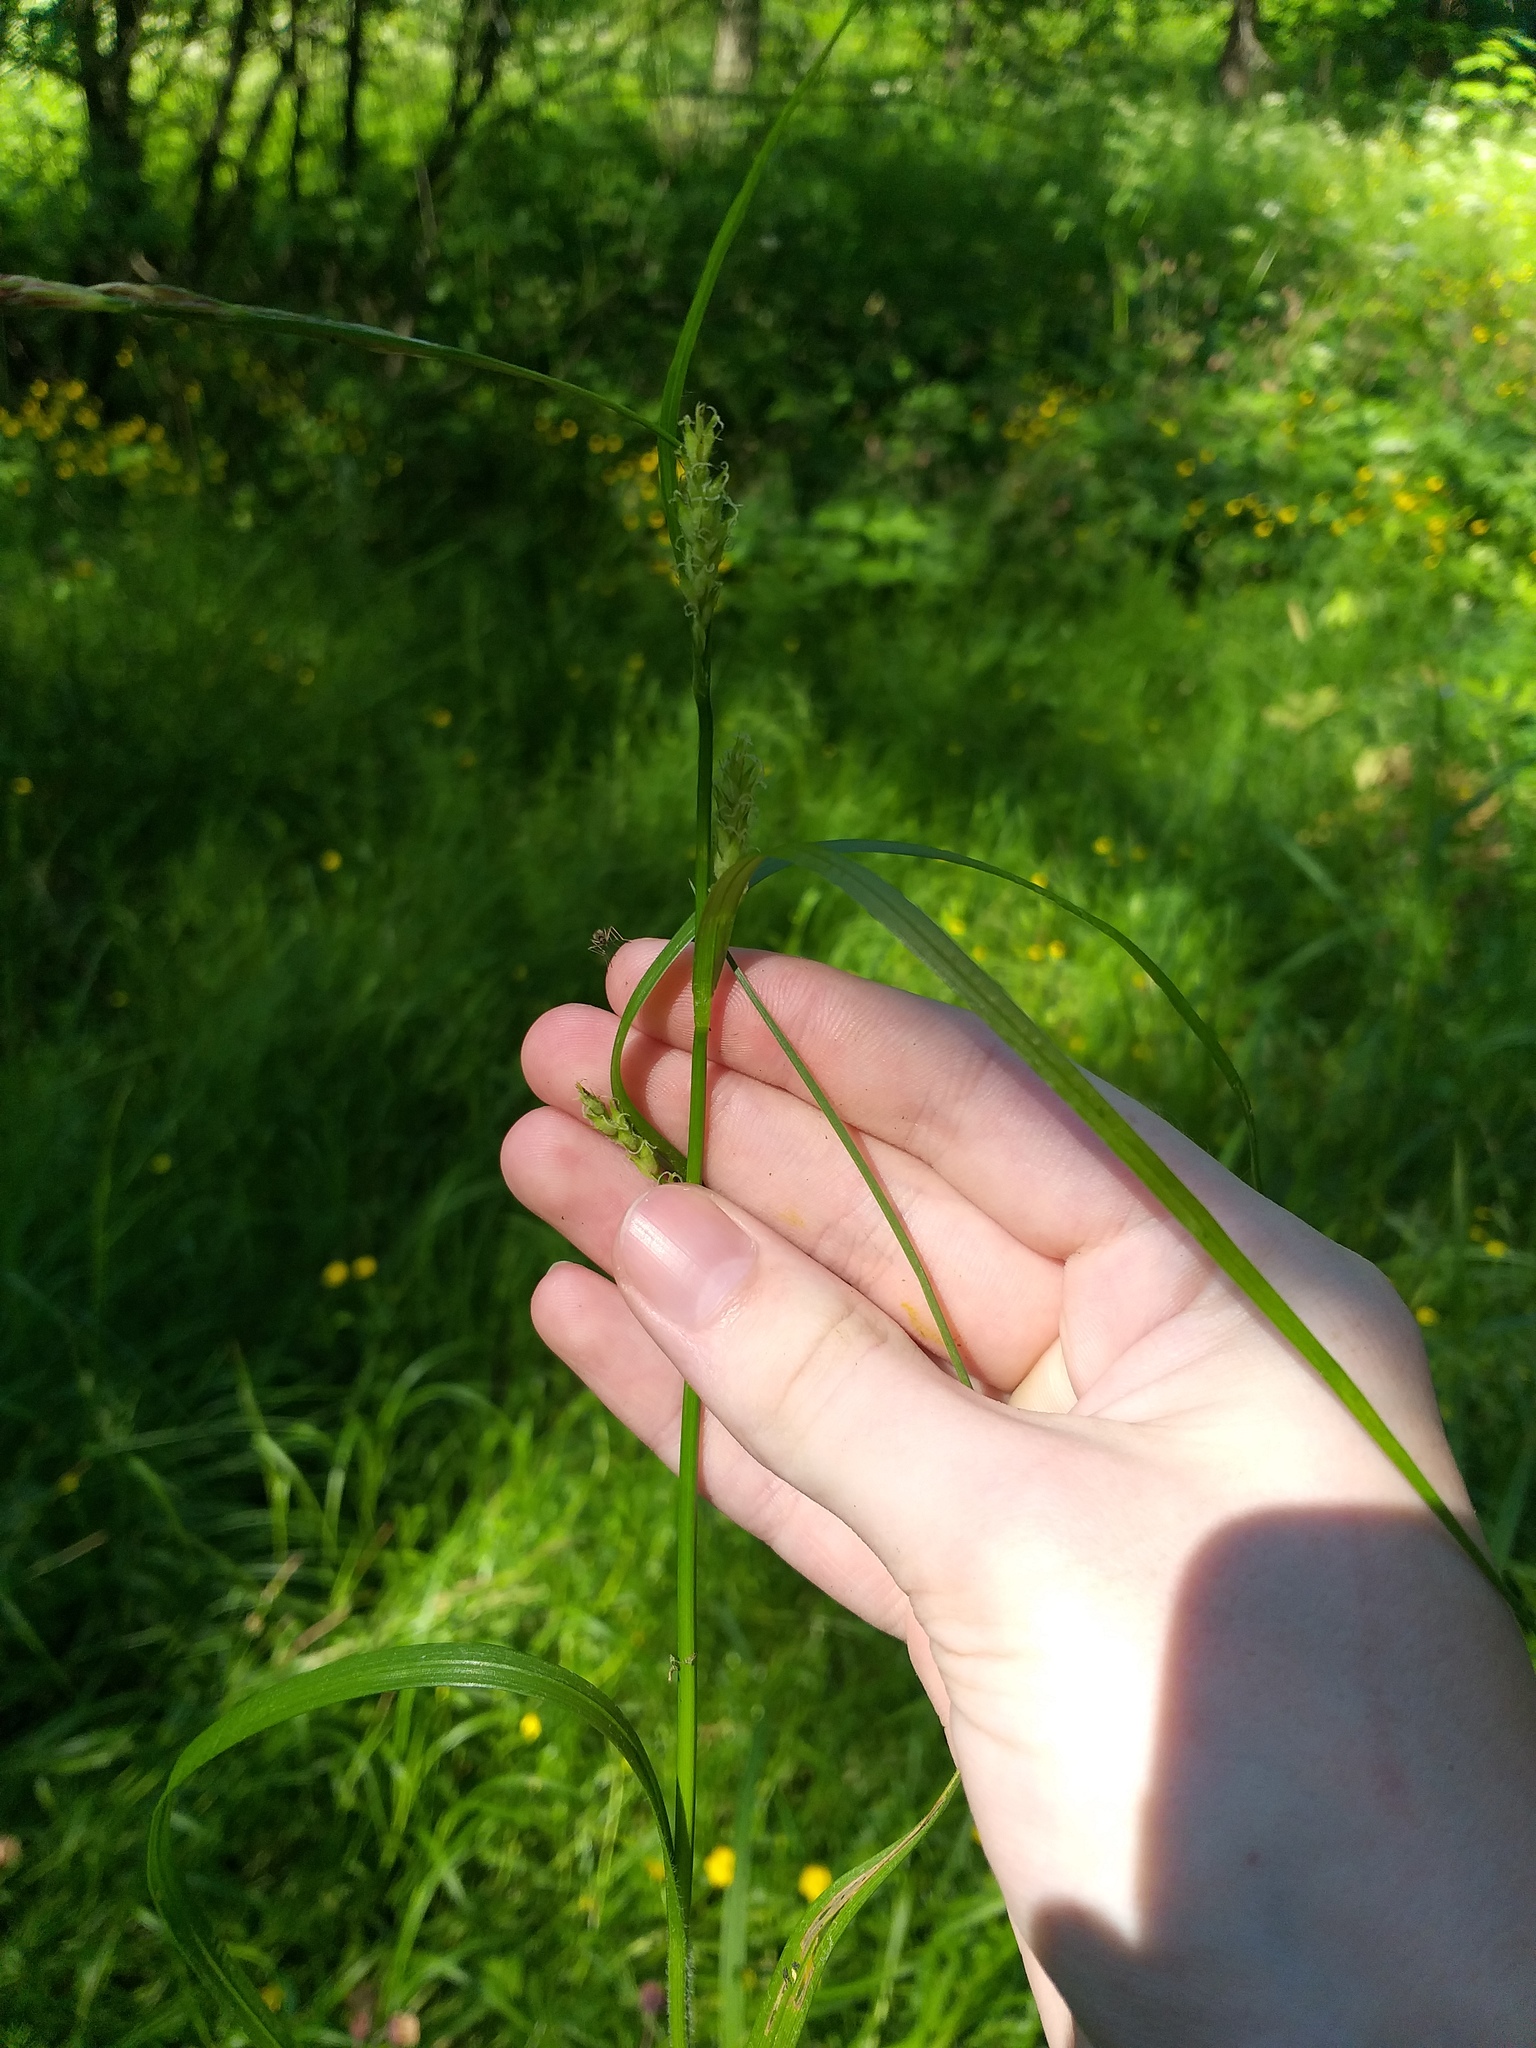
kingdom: Plantae
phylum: Tracheophyta
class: Liliopsida
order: Poales
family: Cyperaceae
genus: Carex
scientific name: Carex atherodes
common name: Wheat sedge
